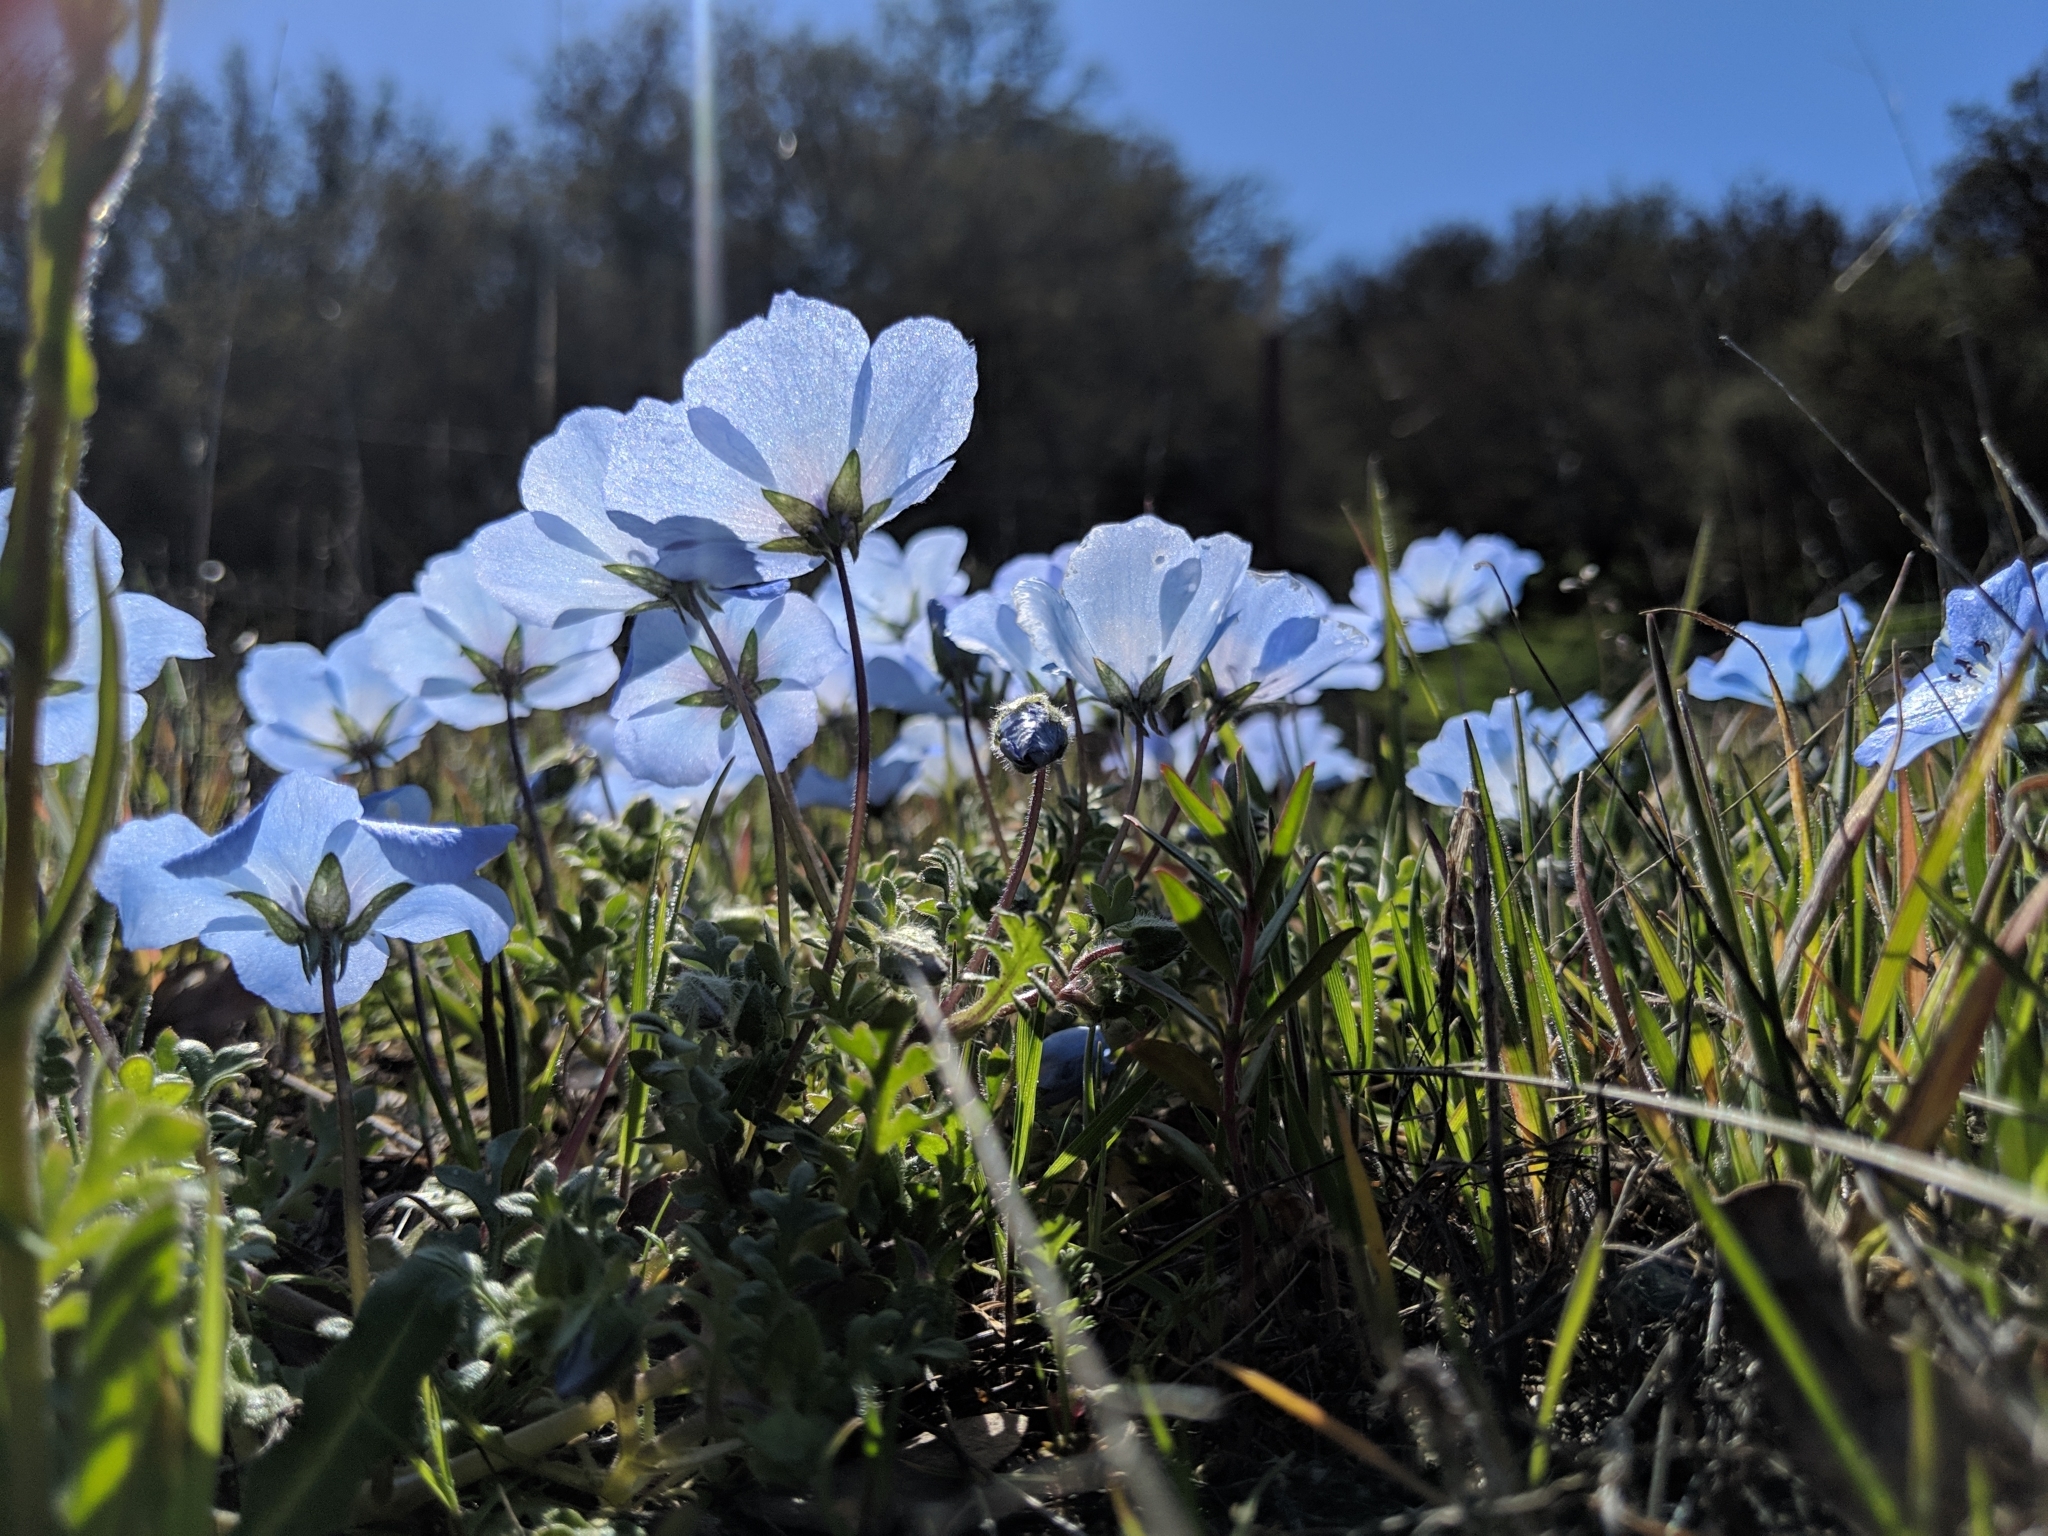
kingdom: Plantae
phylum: Tracheophyta
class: Magnoliopsida
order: Boraginales
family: Hydrophyllaceae
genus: Nemophila
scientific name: Nemophila menziesii
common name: Baby's-blue-eyes
